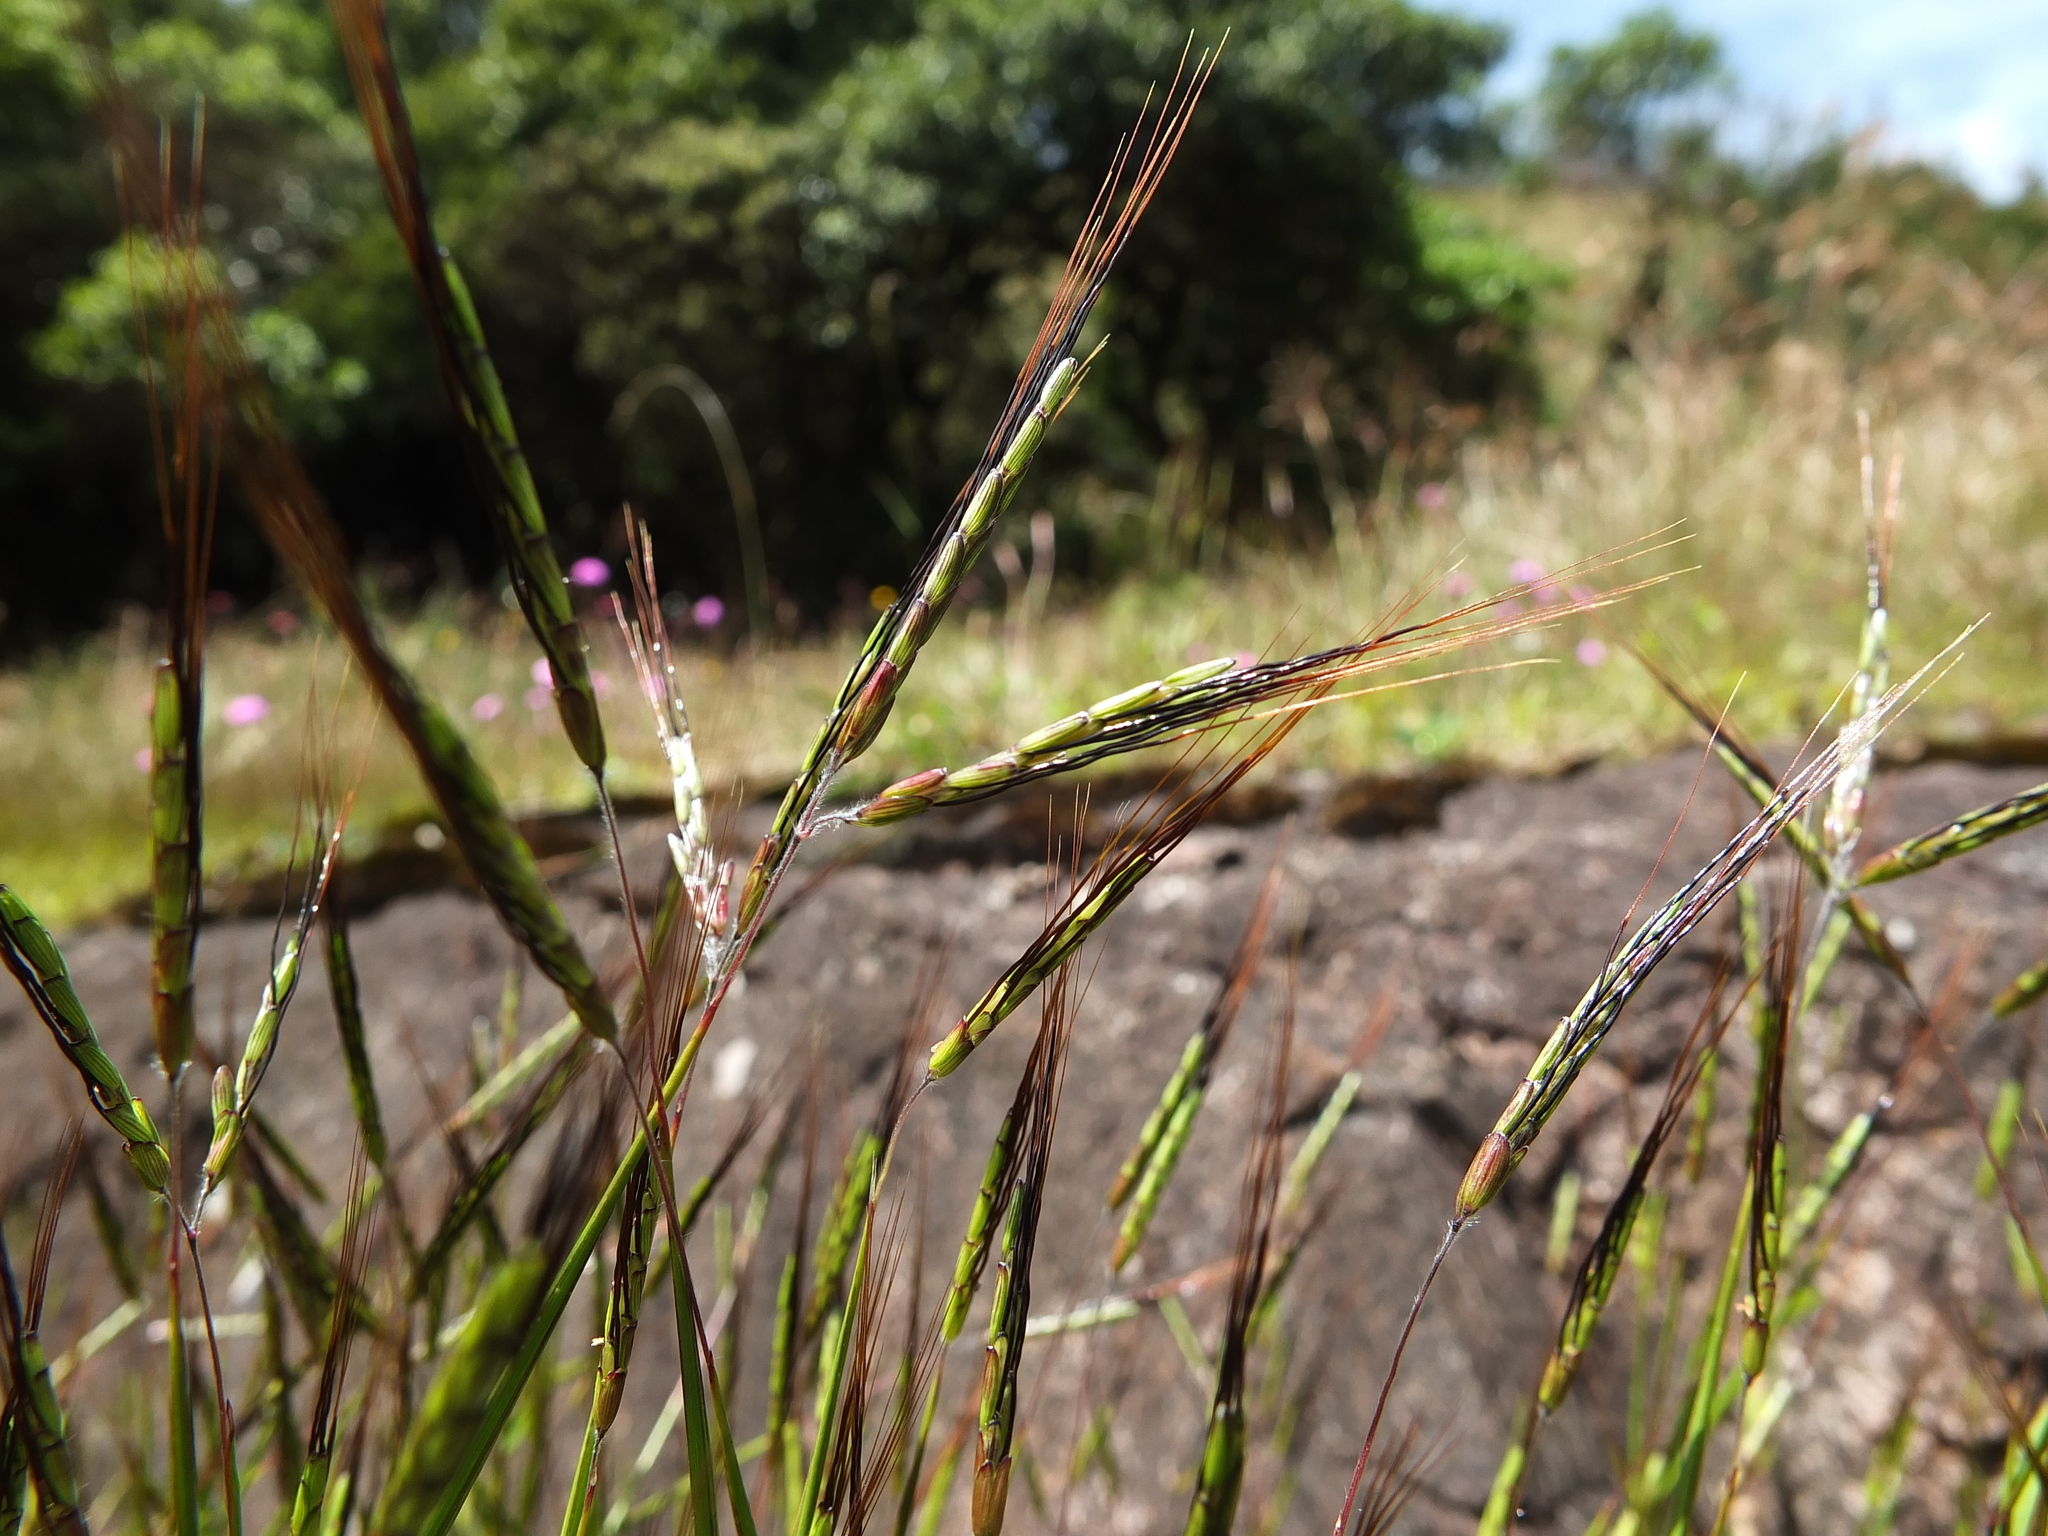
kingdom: Plantae
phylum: Tracheophyta
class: Liliopsida
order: Poales
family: Poaceae
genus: Euclasta
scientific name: Euclasta oligantha
